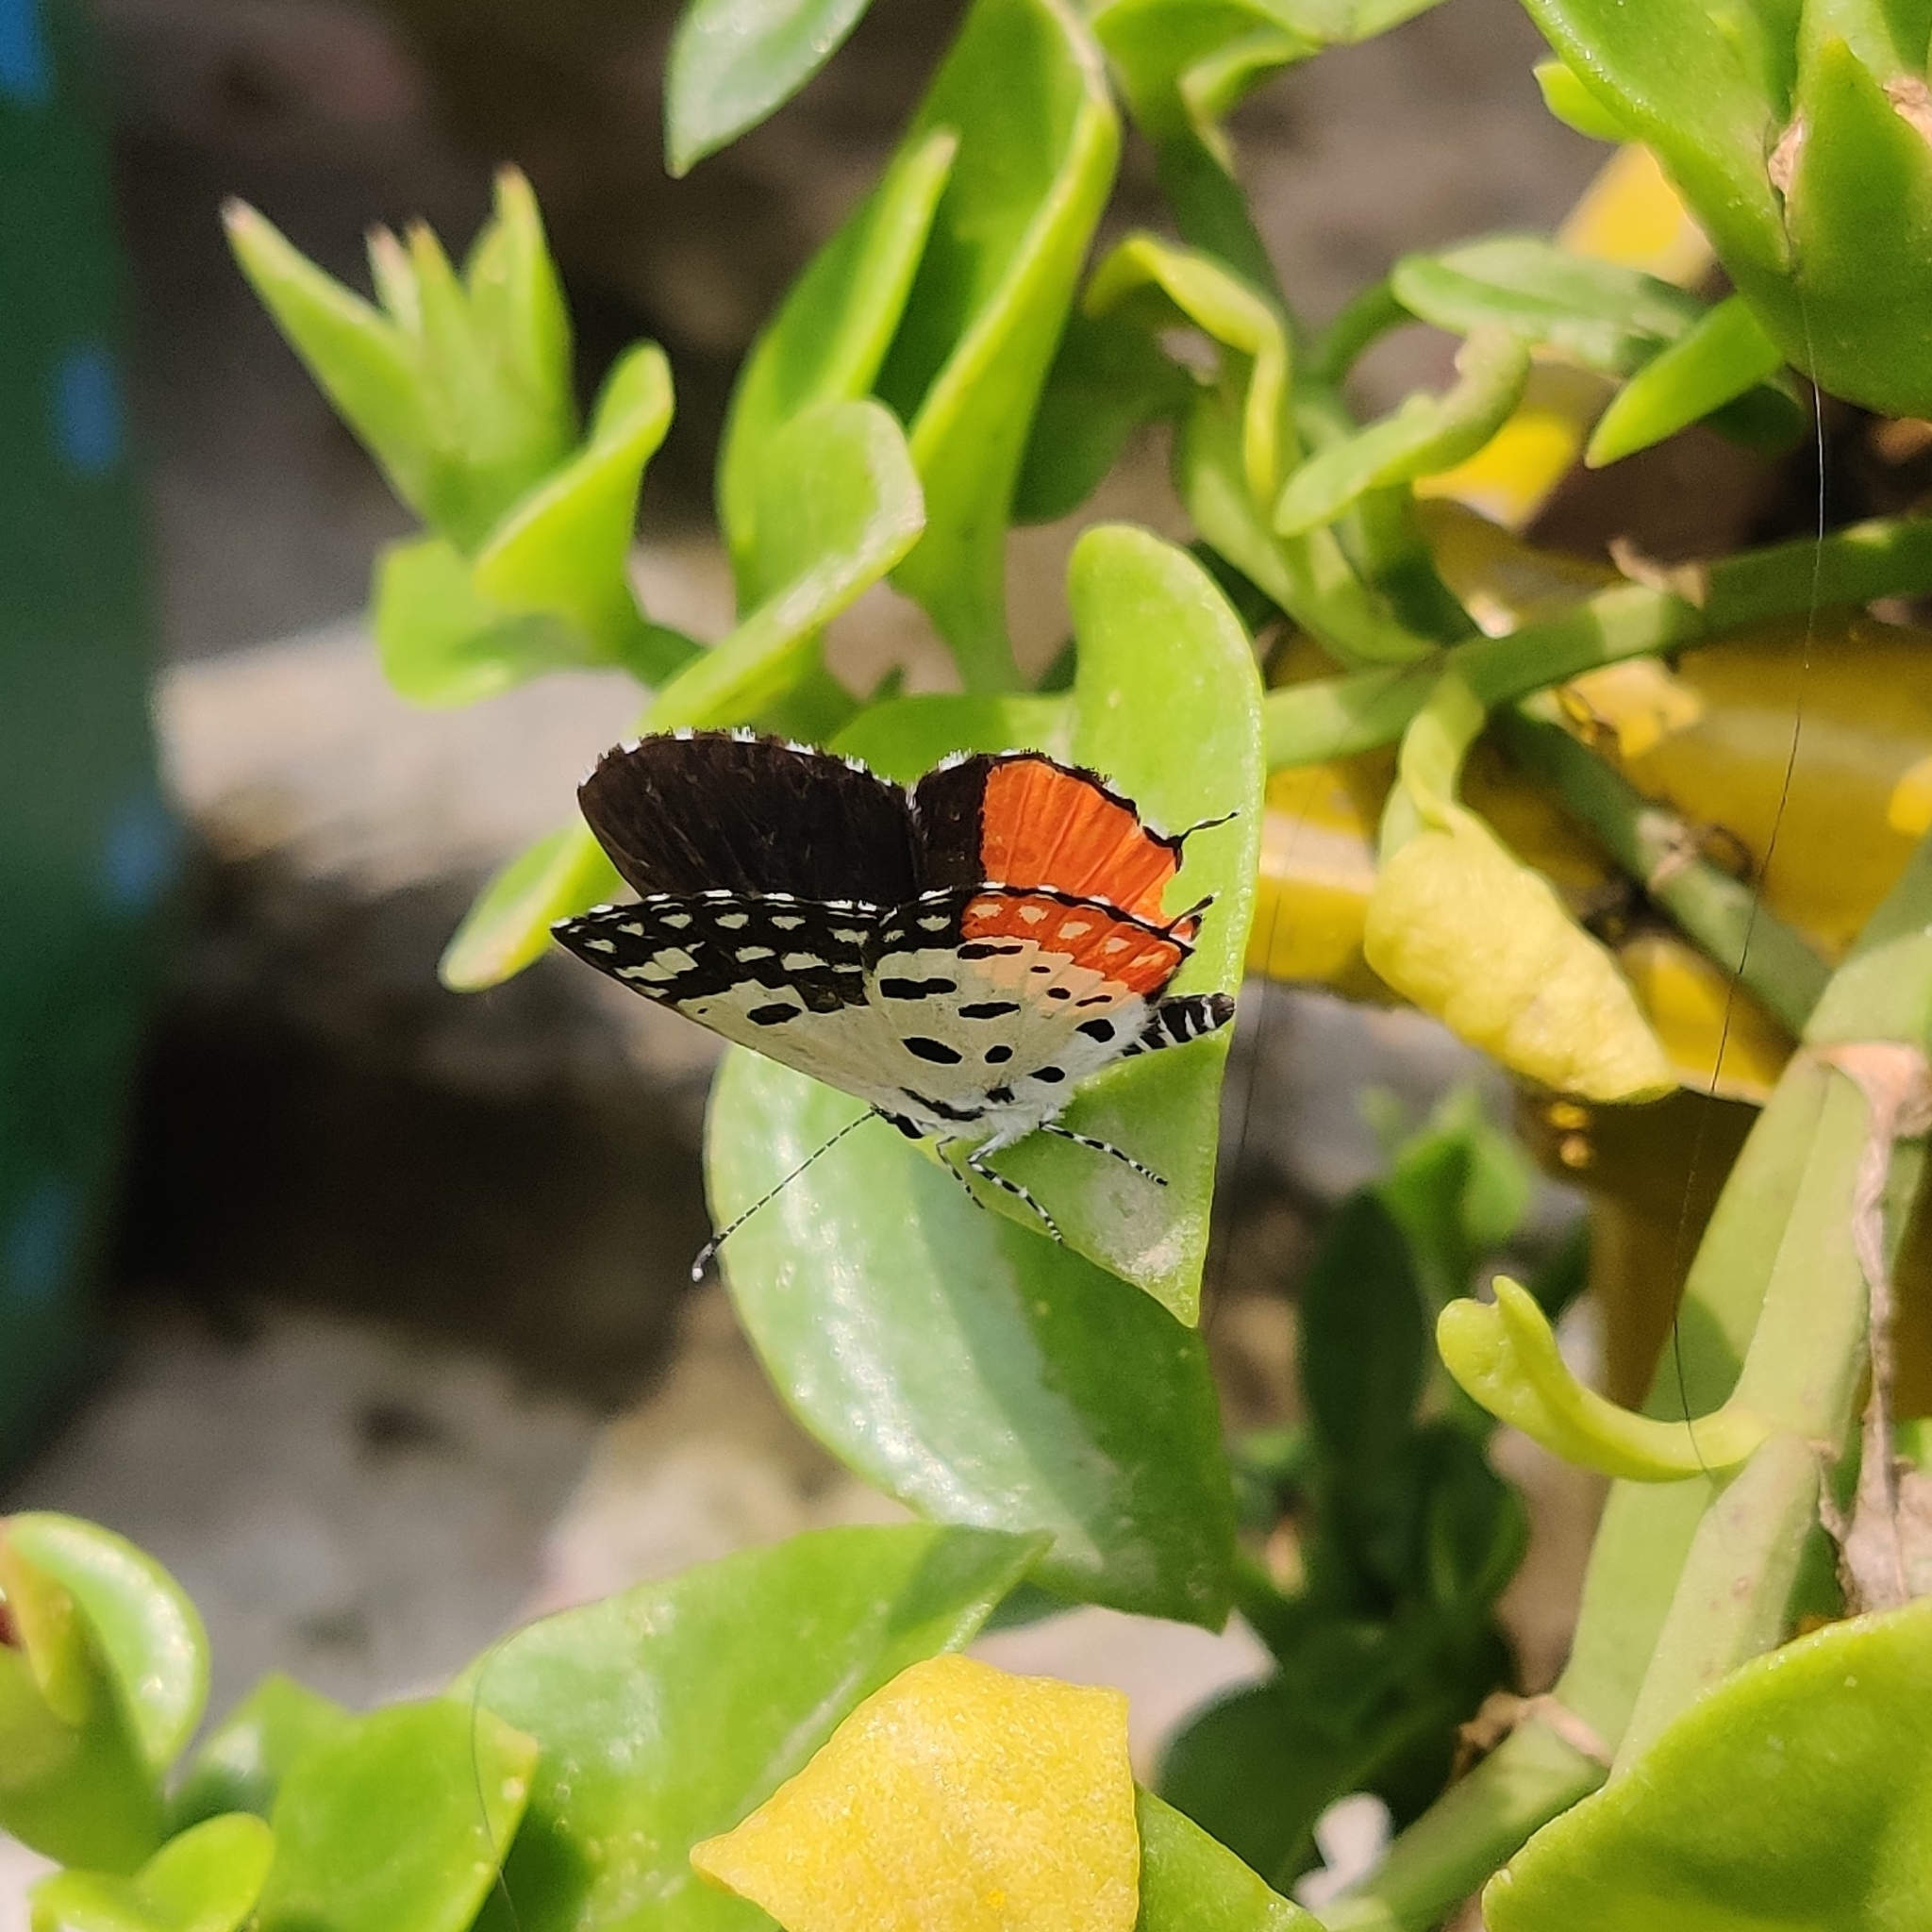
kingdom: Animalia
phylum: Arthropoda
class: Insecta
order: Lepidoptera
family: Lycaenidae
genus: Talicada
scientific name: Talicada nyseus
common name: Red pierrot
